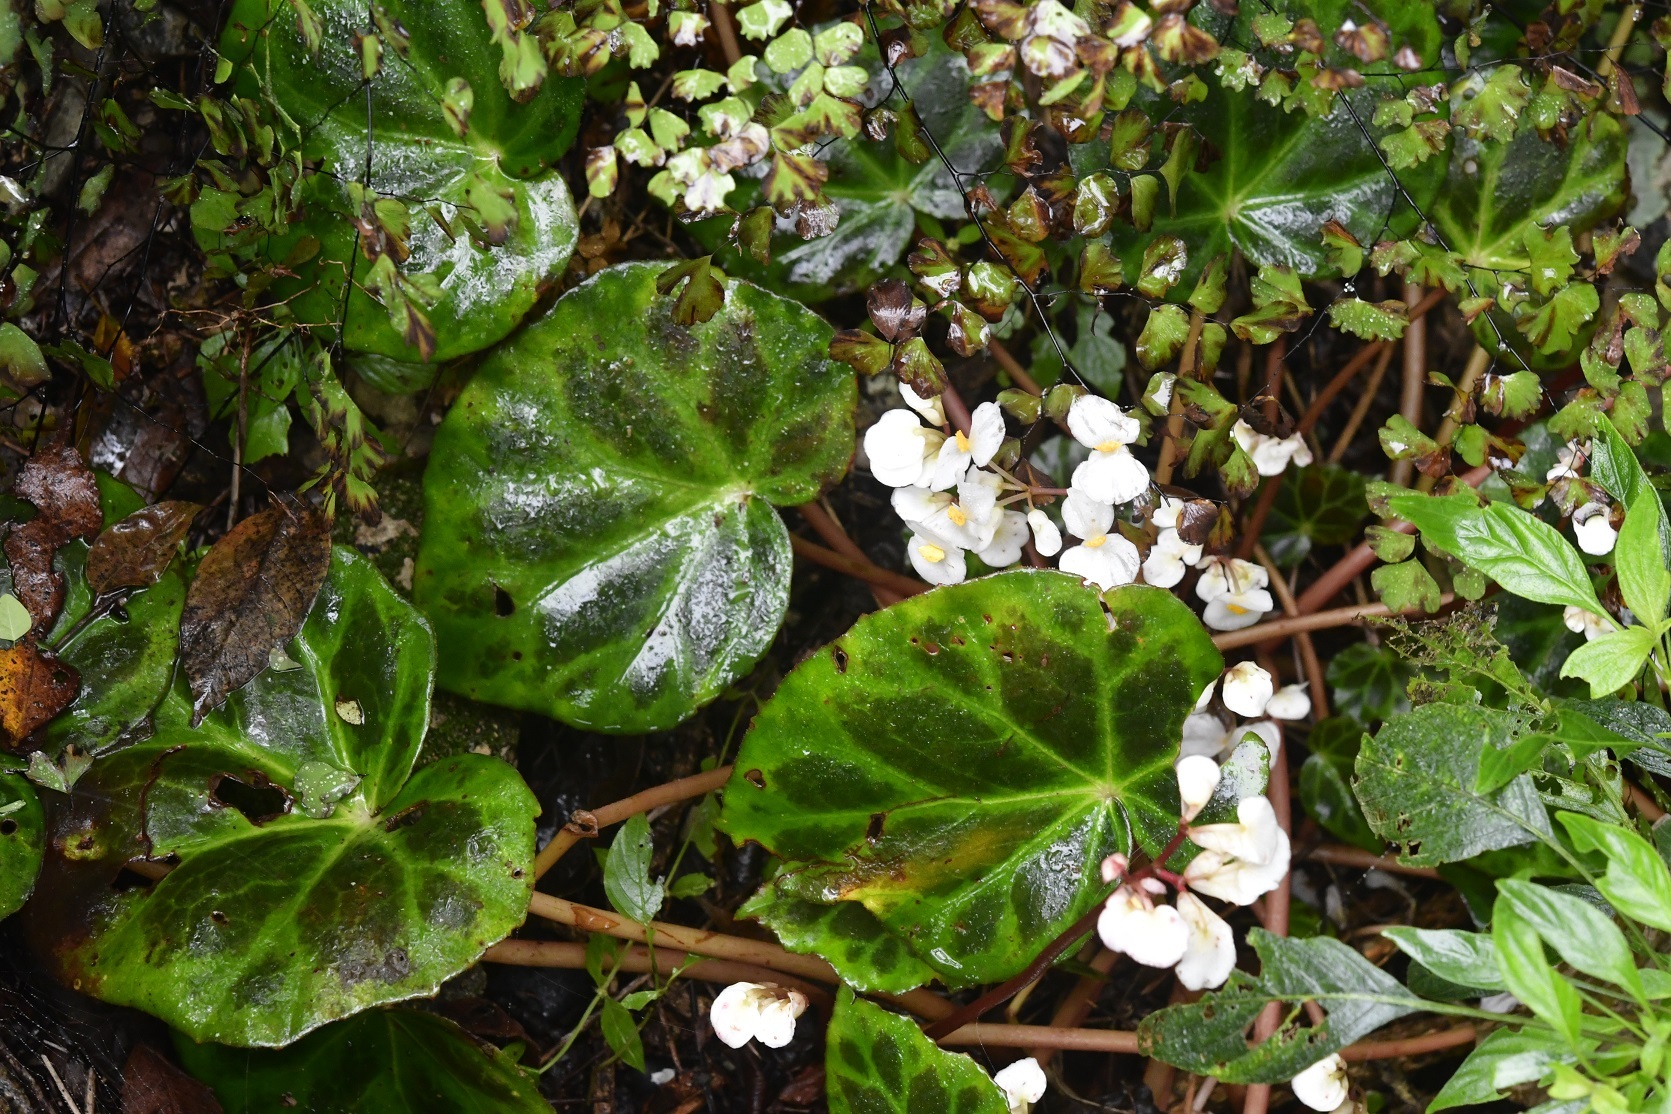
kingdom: Plantae
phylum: Tracheophyta
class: Magnoliopsida
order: Cucurbitales
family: Begoniaceae
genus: Begonia
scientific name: Begonia plebeja
